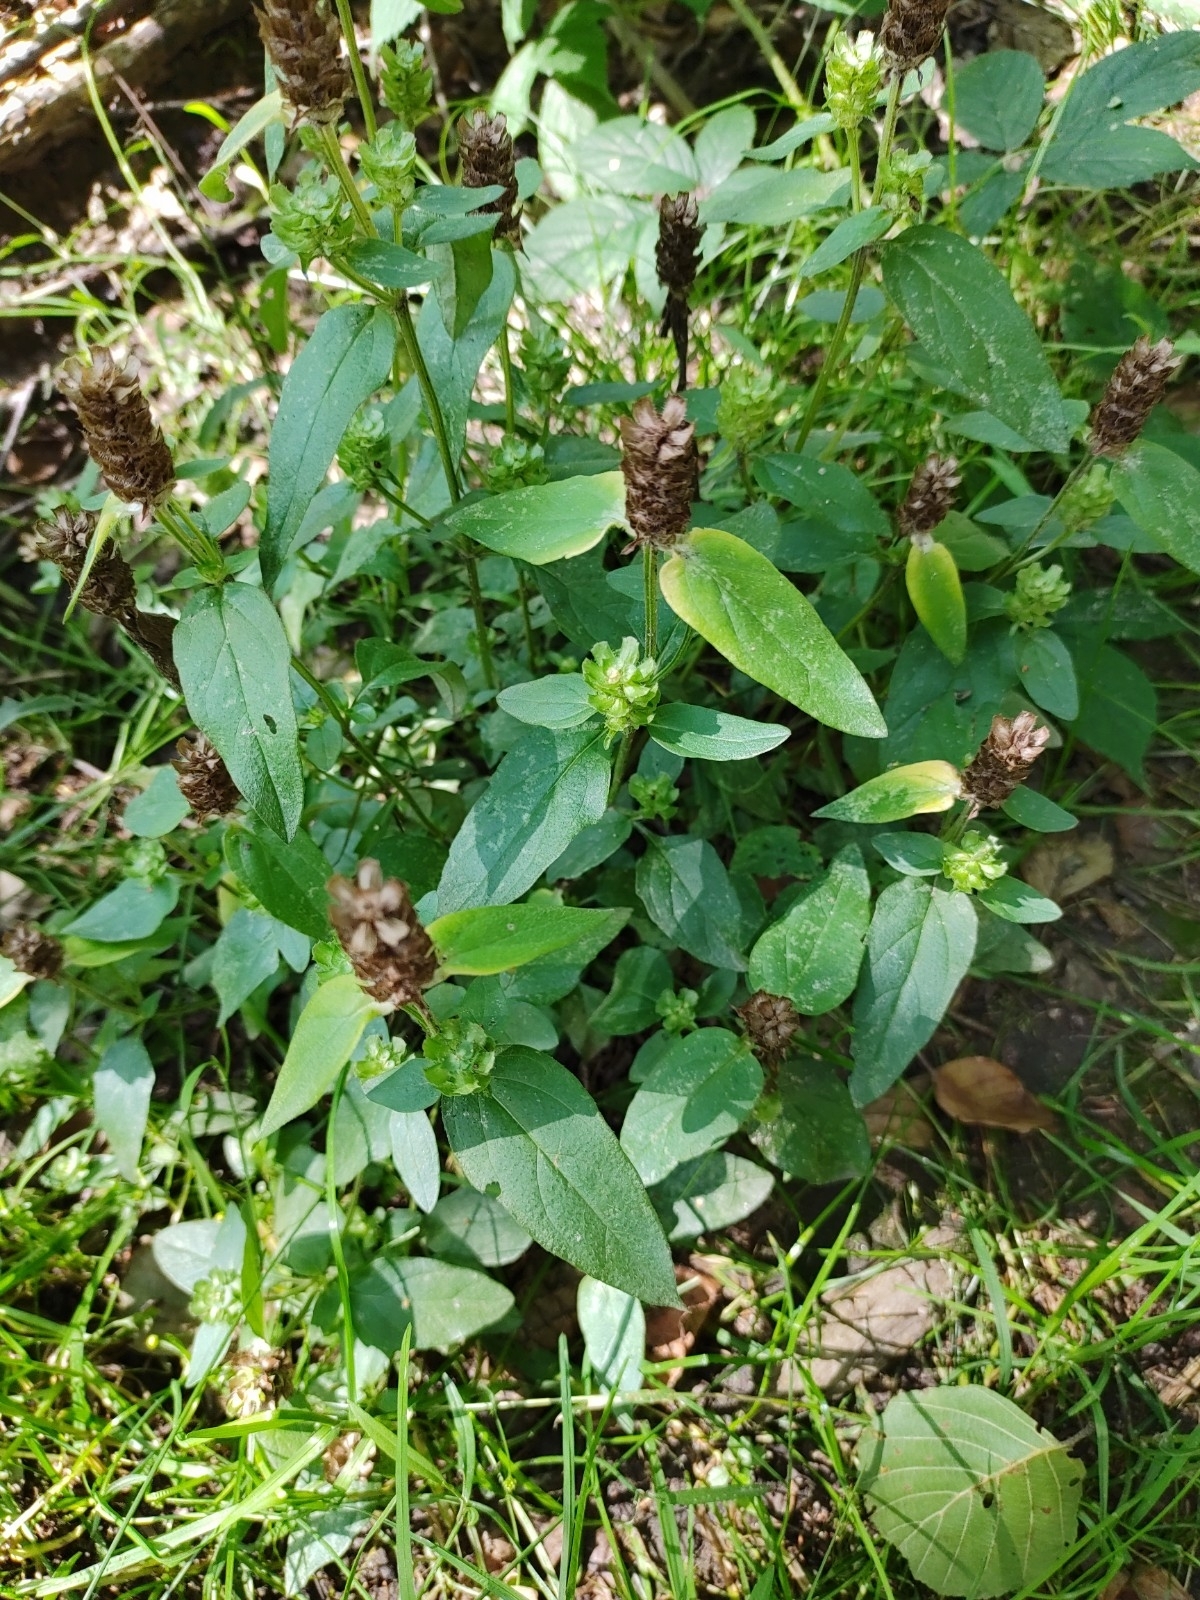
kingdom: Plantae
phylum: Tracheophyta
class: Magnoliopsida
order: Lamiales
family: Lamiaceae
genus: Prunella
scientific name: Prunella vulgaris
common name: Heal-all
